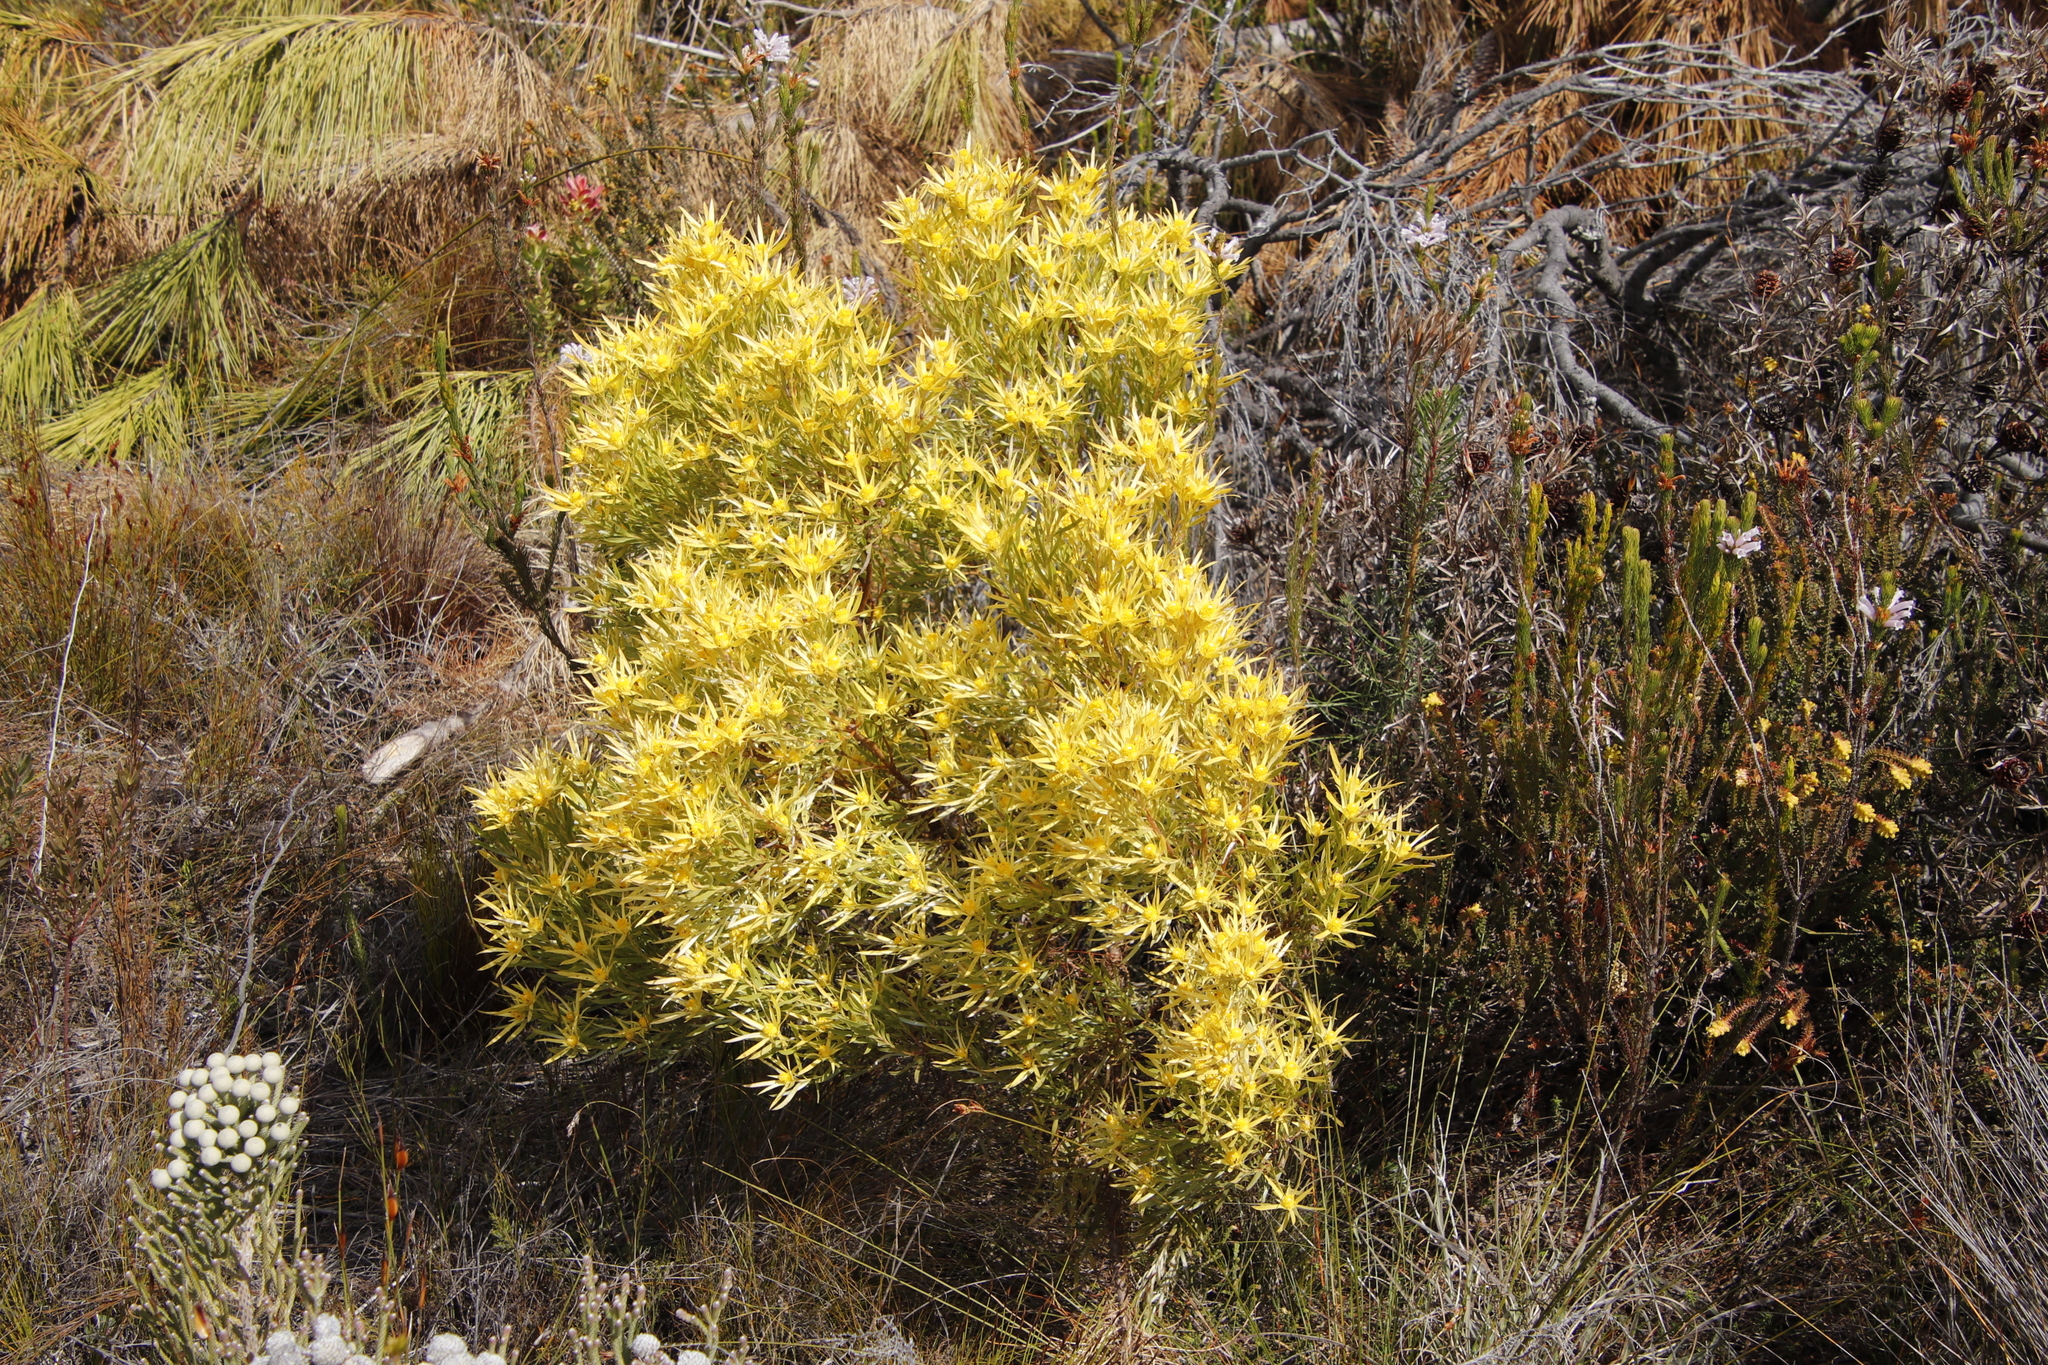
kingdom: Plantae
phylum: Tracheophyta
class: Magnoliopsida
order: Proteales
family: Proteaceae
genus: Leucadendron
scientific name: Leucadendron xanthoconus
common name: Sickle-leaf conebush
